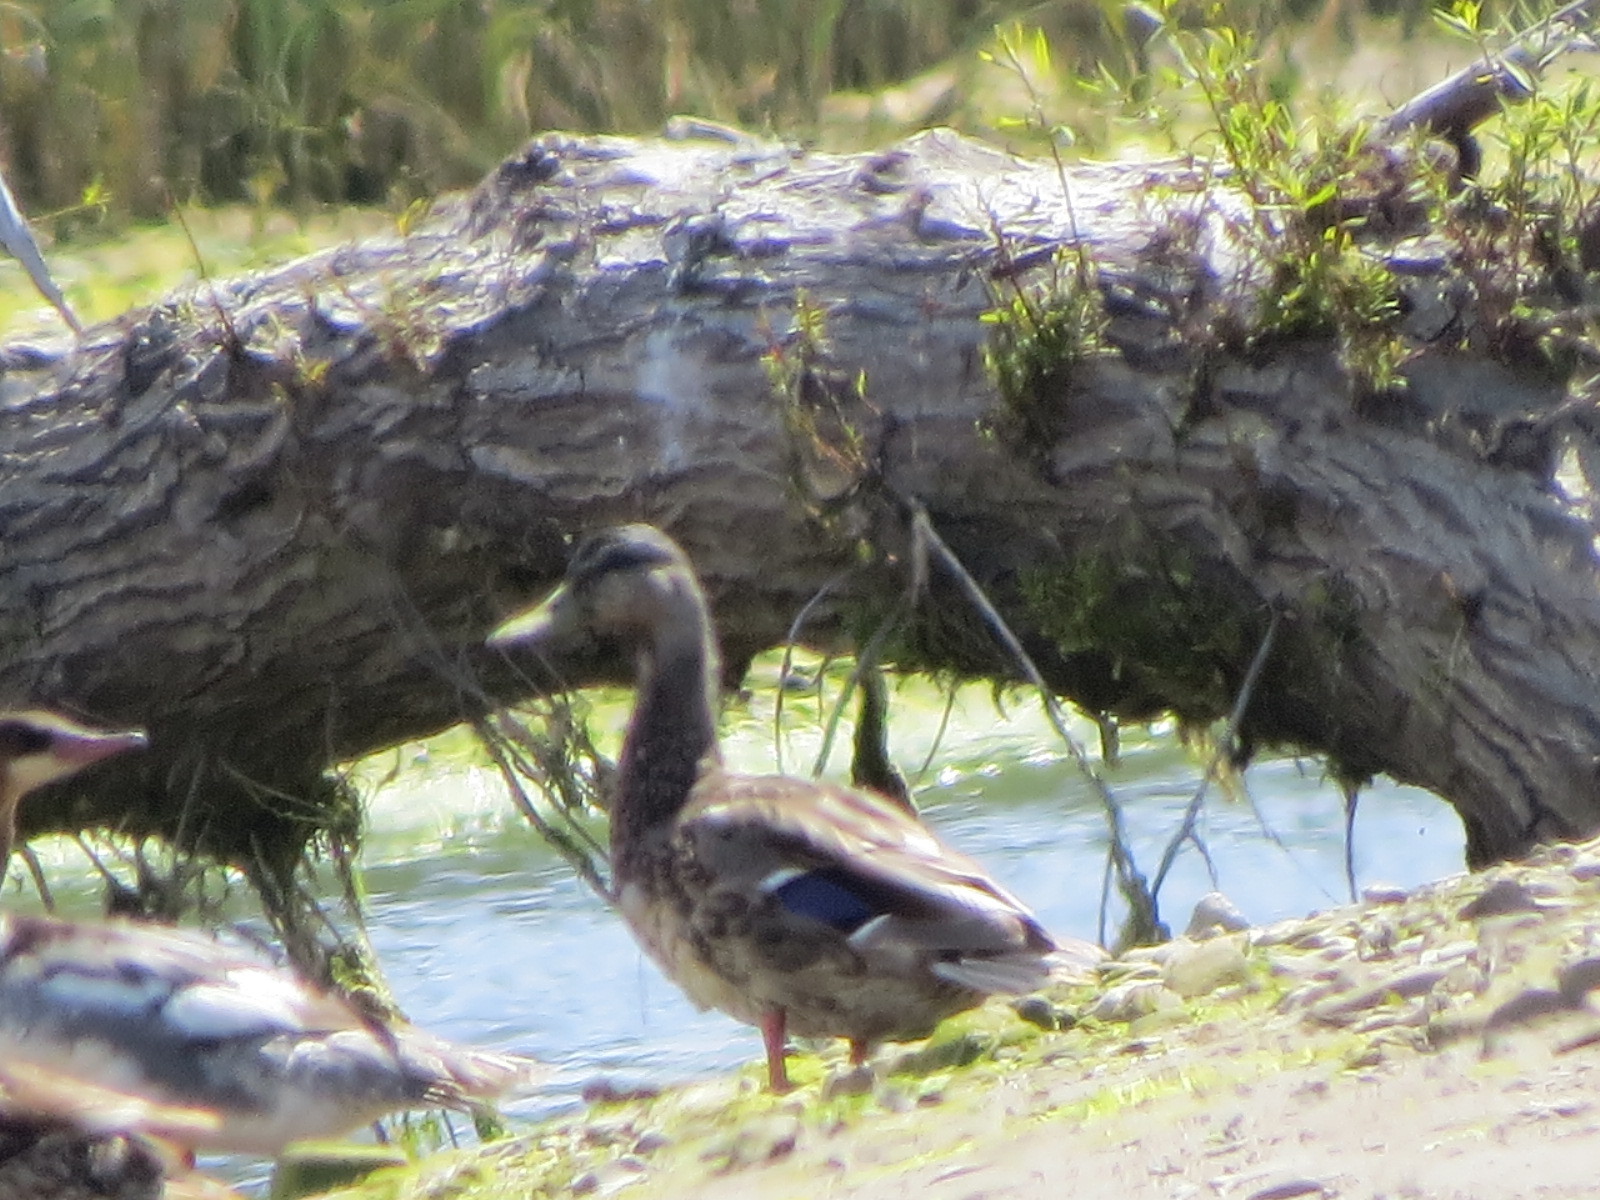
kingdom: Animalia
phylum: Chordata
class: Aves
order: Anseriformes
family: Anatidae
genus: Anas
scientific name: Anas platyrhynchos
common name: Mallard
